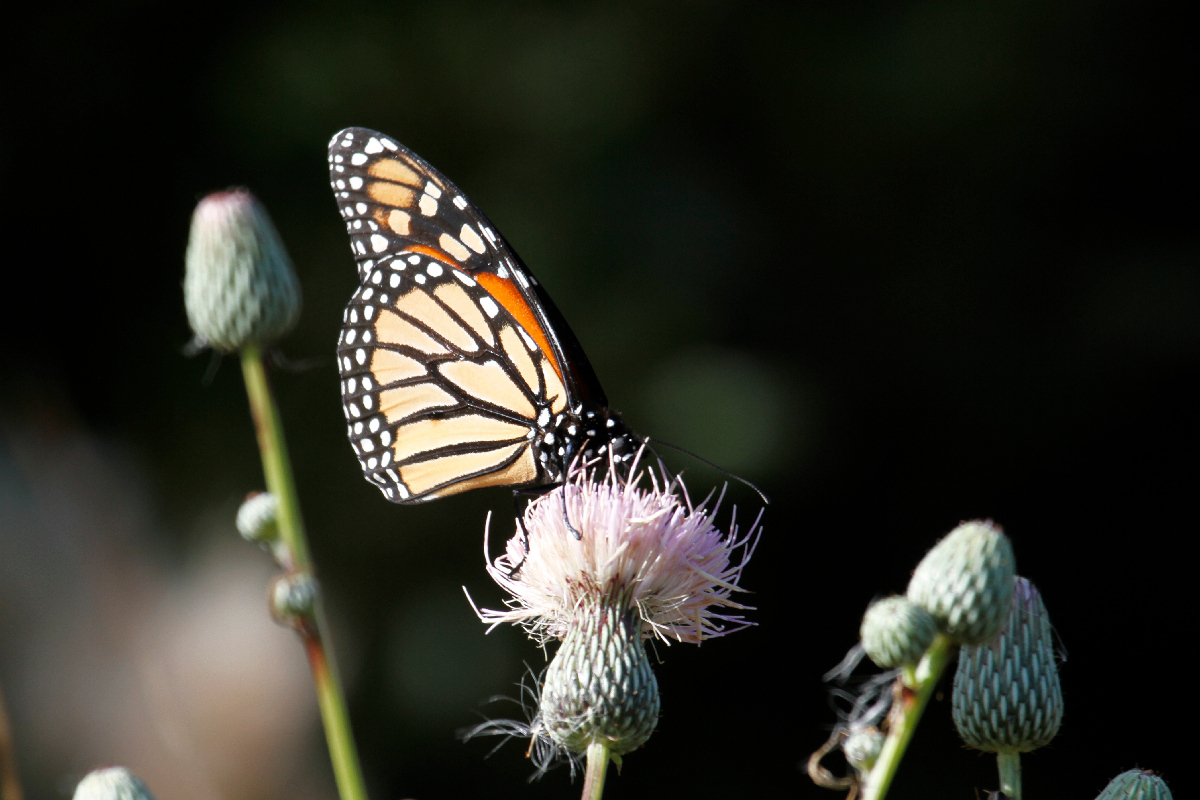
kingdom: Animalia
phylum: Arthropoda
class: Insecta
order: Lepidoptera
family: Nymphalidae
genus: Danaus
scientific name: Danaus plexippus
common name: Monarch
